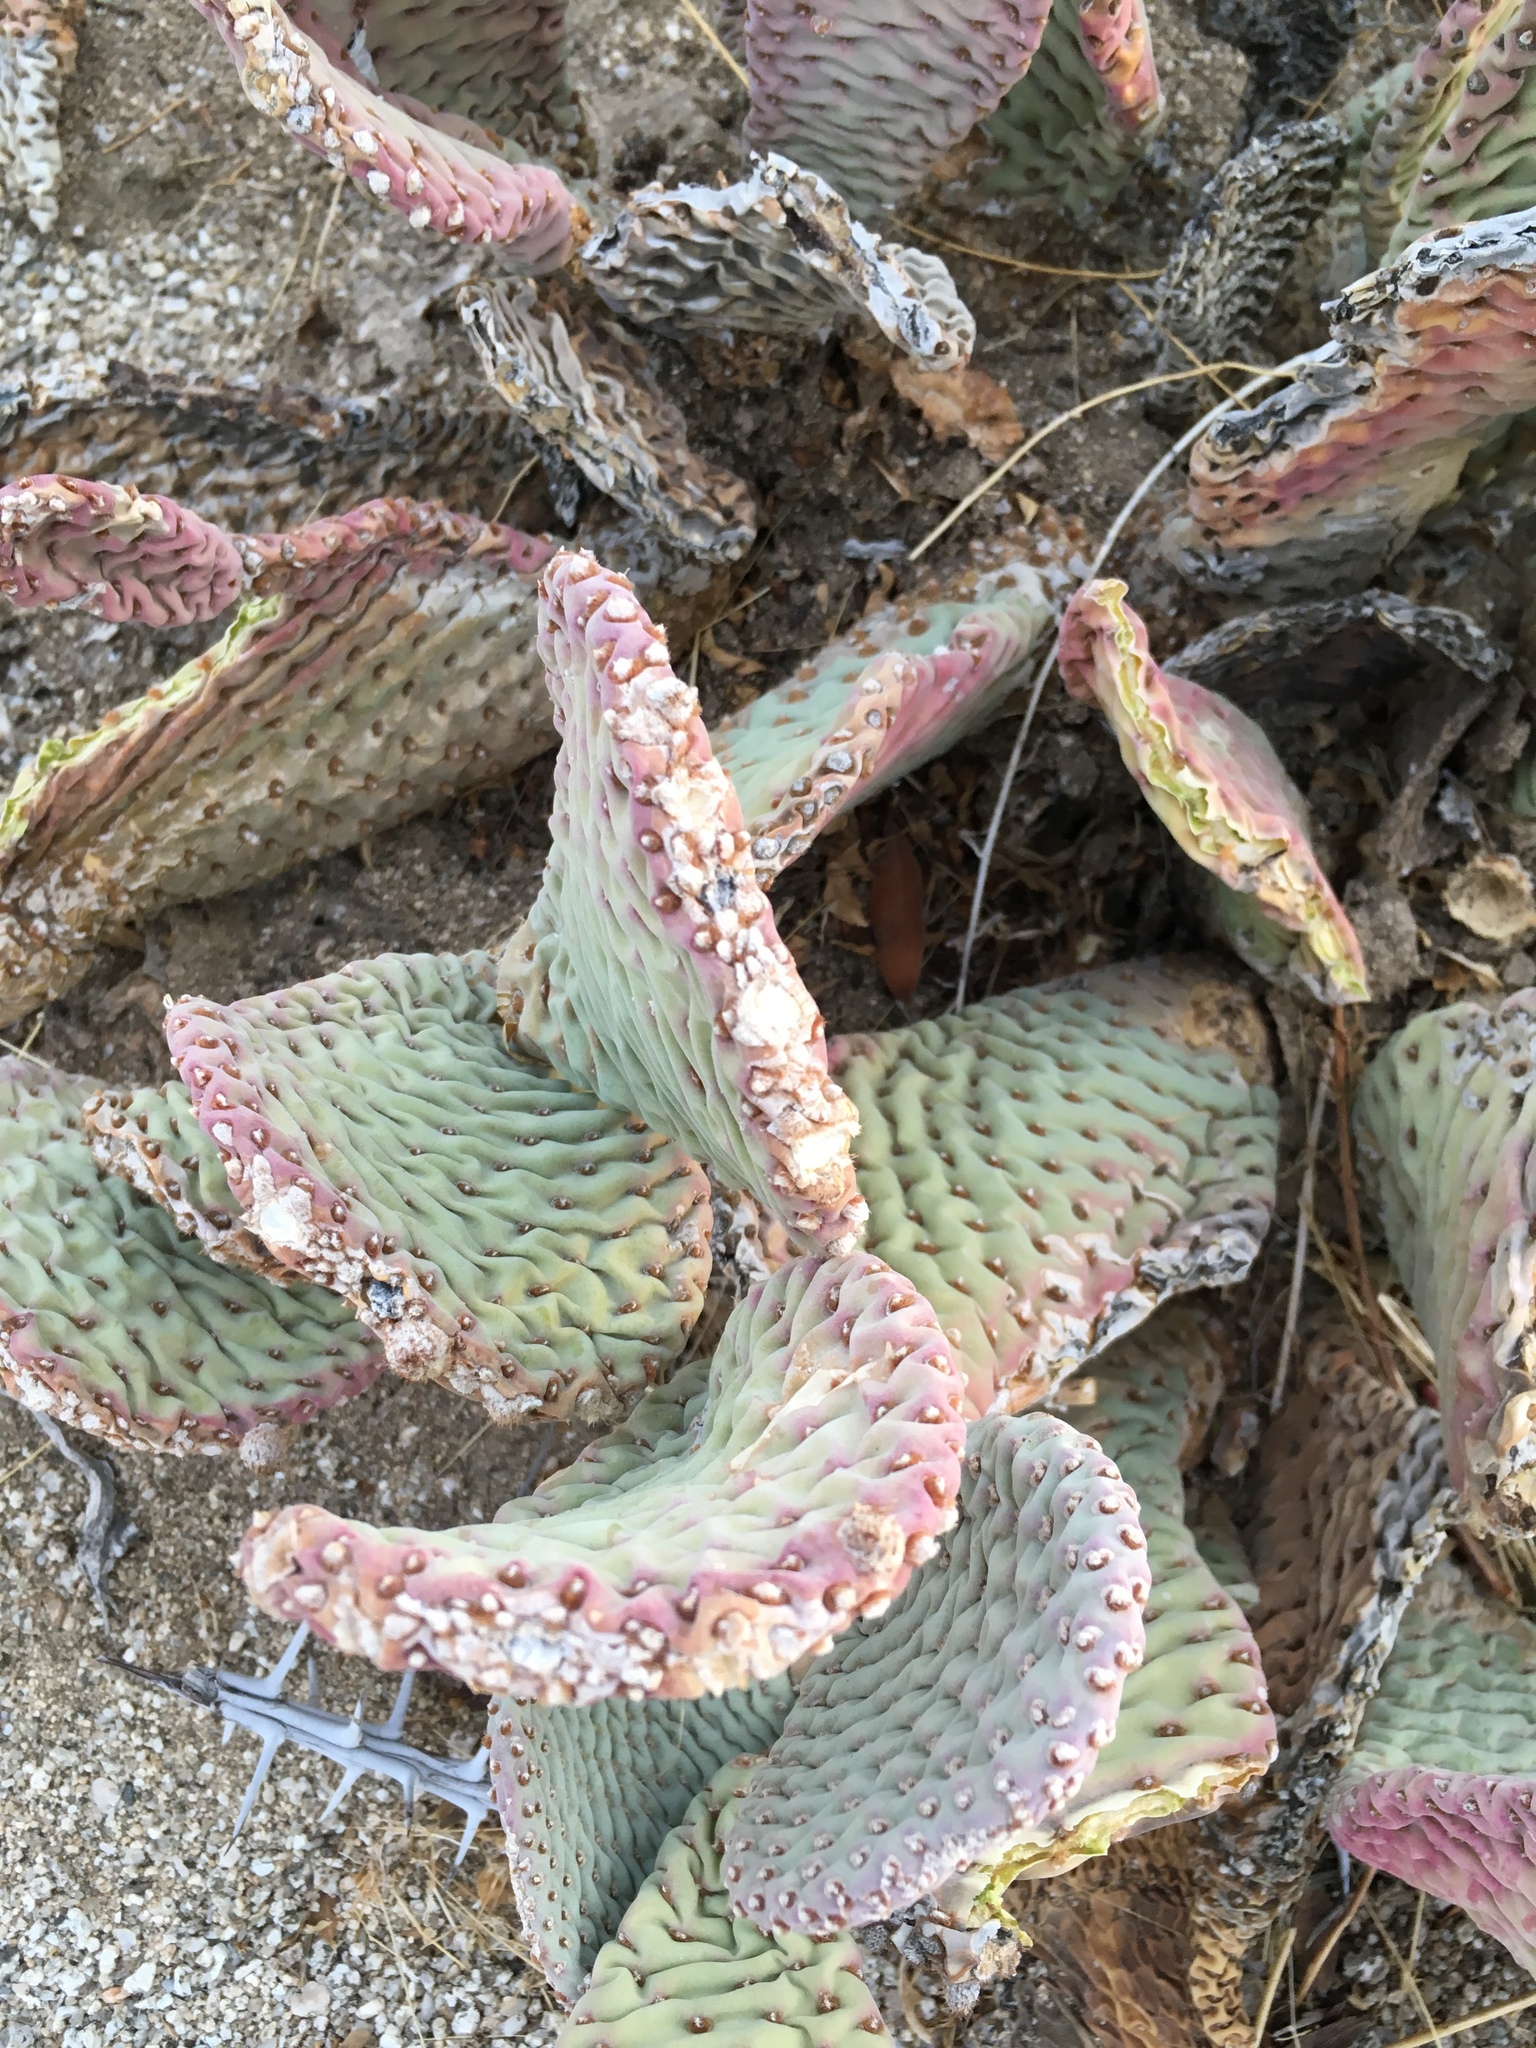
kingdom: Plantae
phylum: Tracheophyta
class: Magnoliopsida
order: Caryophyllales
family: Cactaceae
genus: Opuntia
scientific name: Opuntia basilaris
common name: Beavertail prickly-pear
